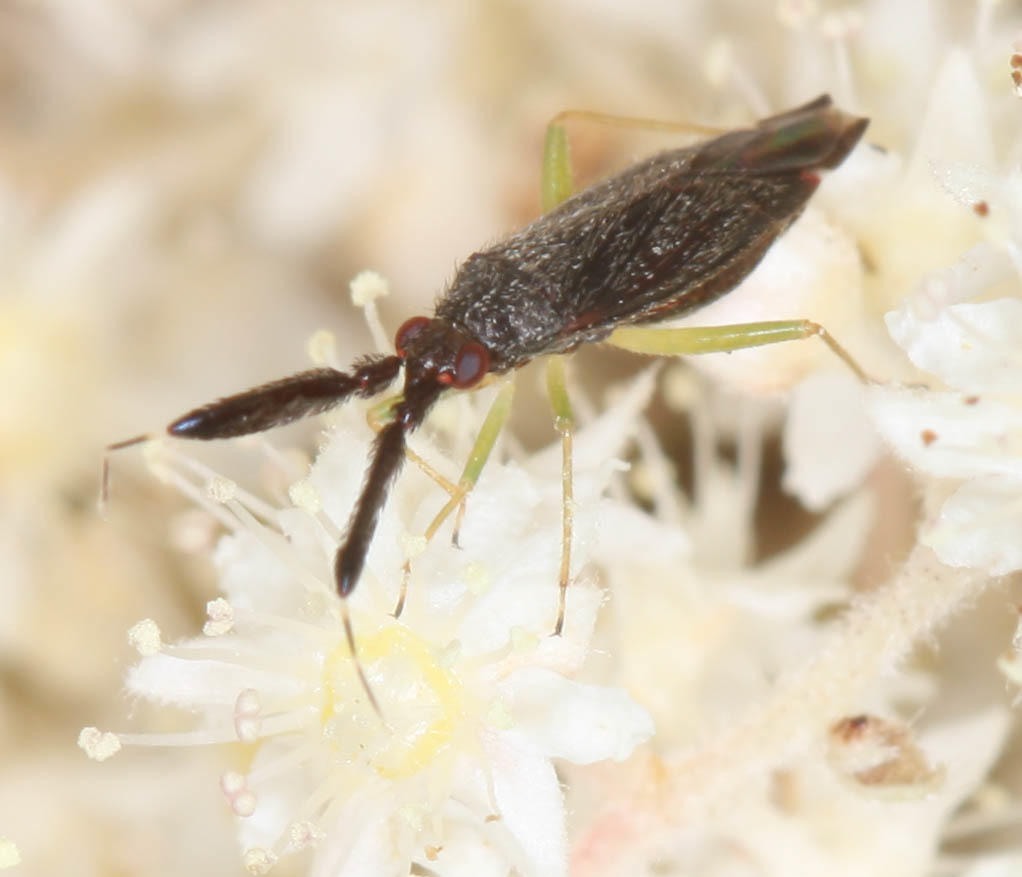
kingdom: Animalia
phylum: Arthropoda
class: Insecta
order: Hemiptera
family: Miridae
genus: Heterotoma
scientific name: Heterotoma planicornis
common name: Plant bug
